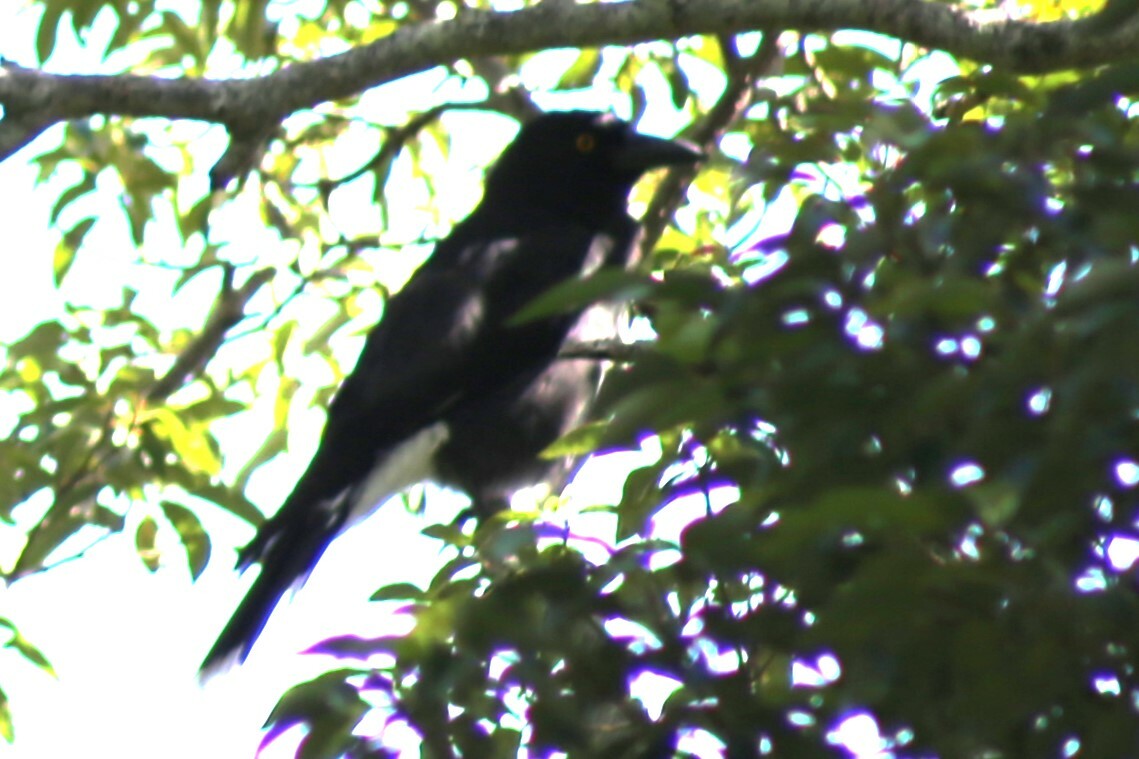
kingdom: Animalia
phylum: Chordata
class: Aves
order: Passeriformes
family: Cracticidae
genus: Strepera
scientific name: Strepera graculina
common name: Pied currawong
